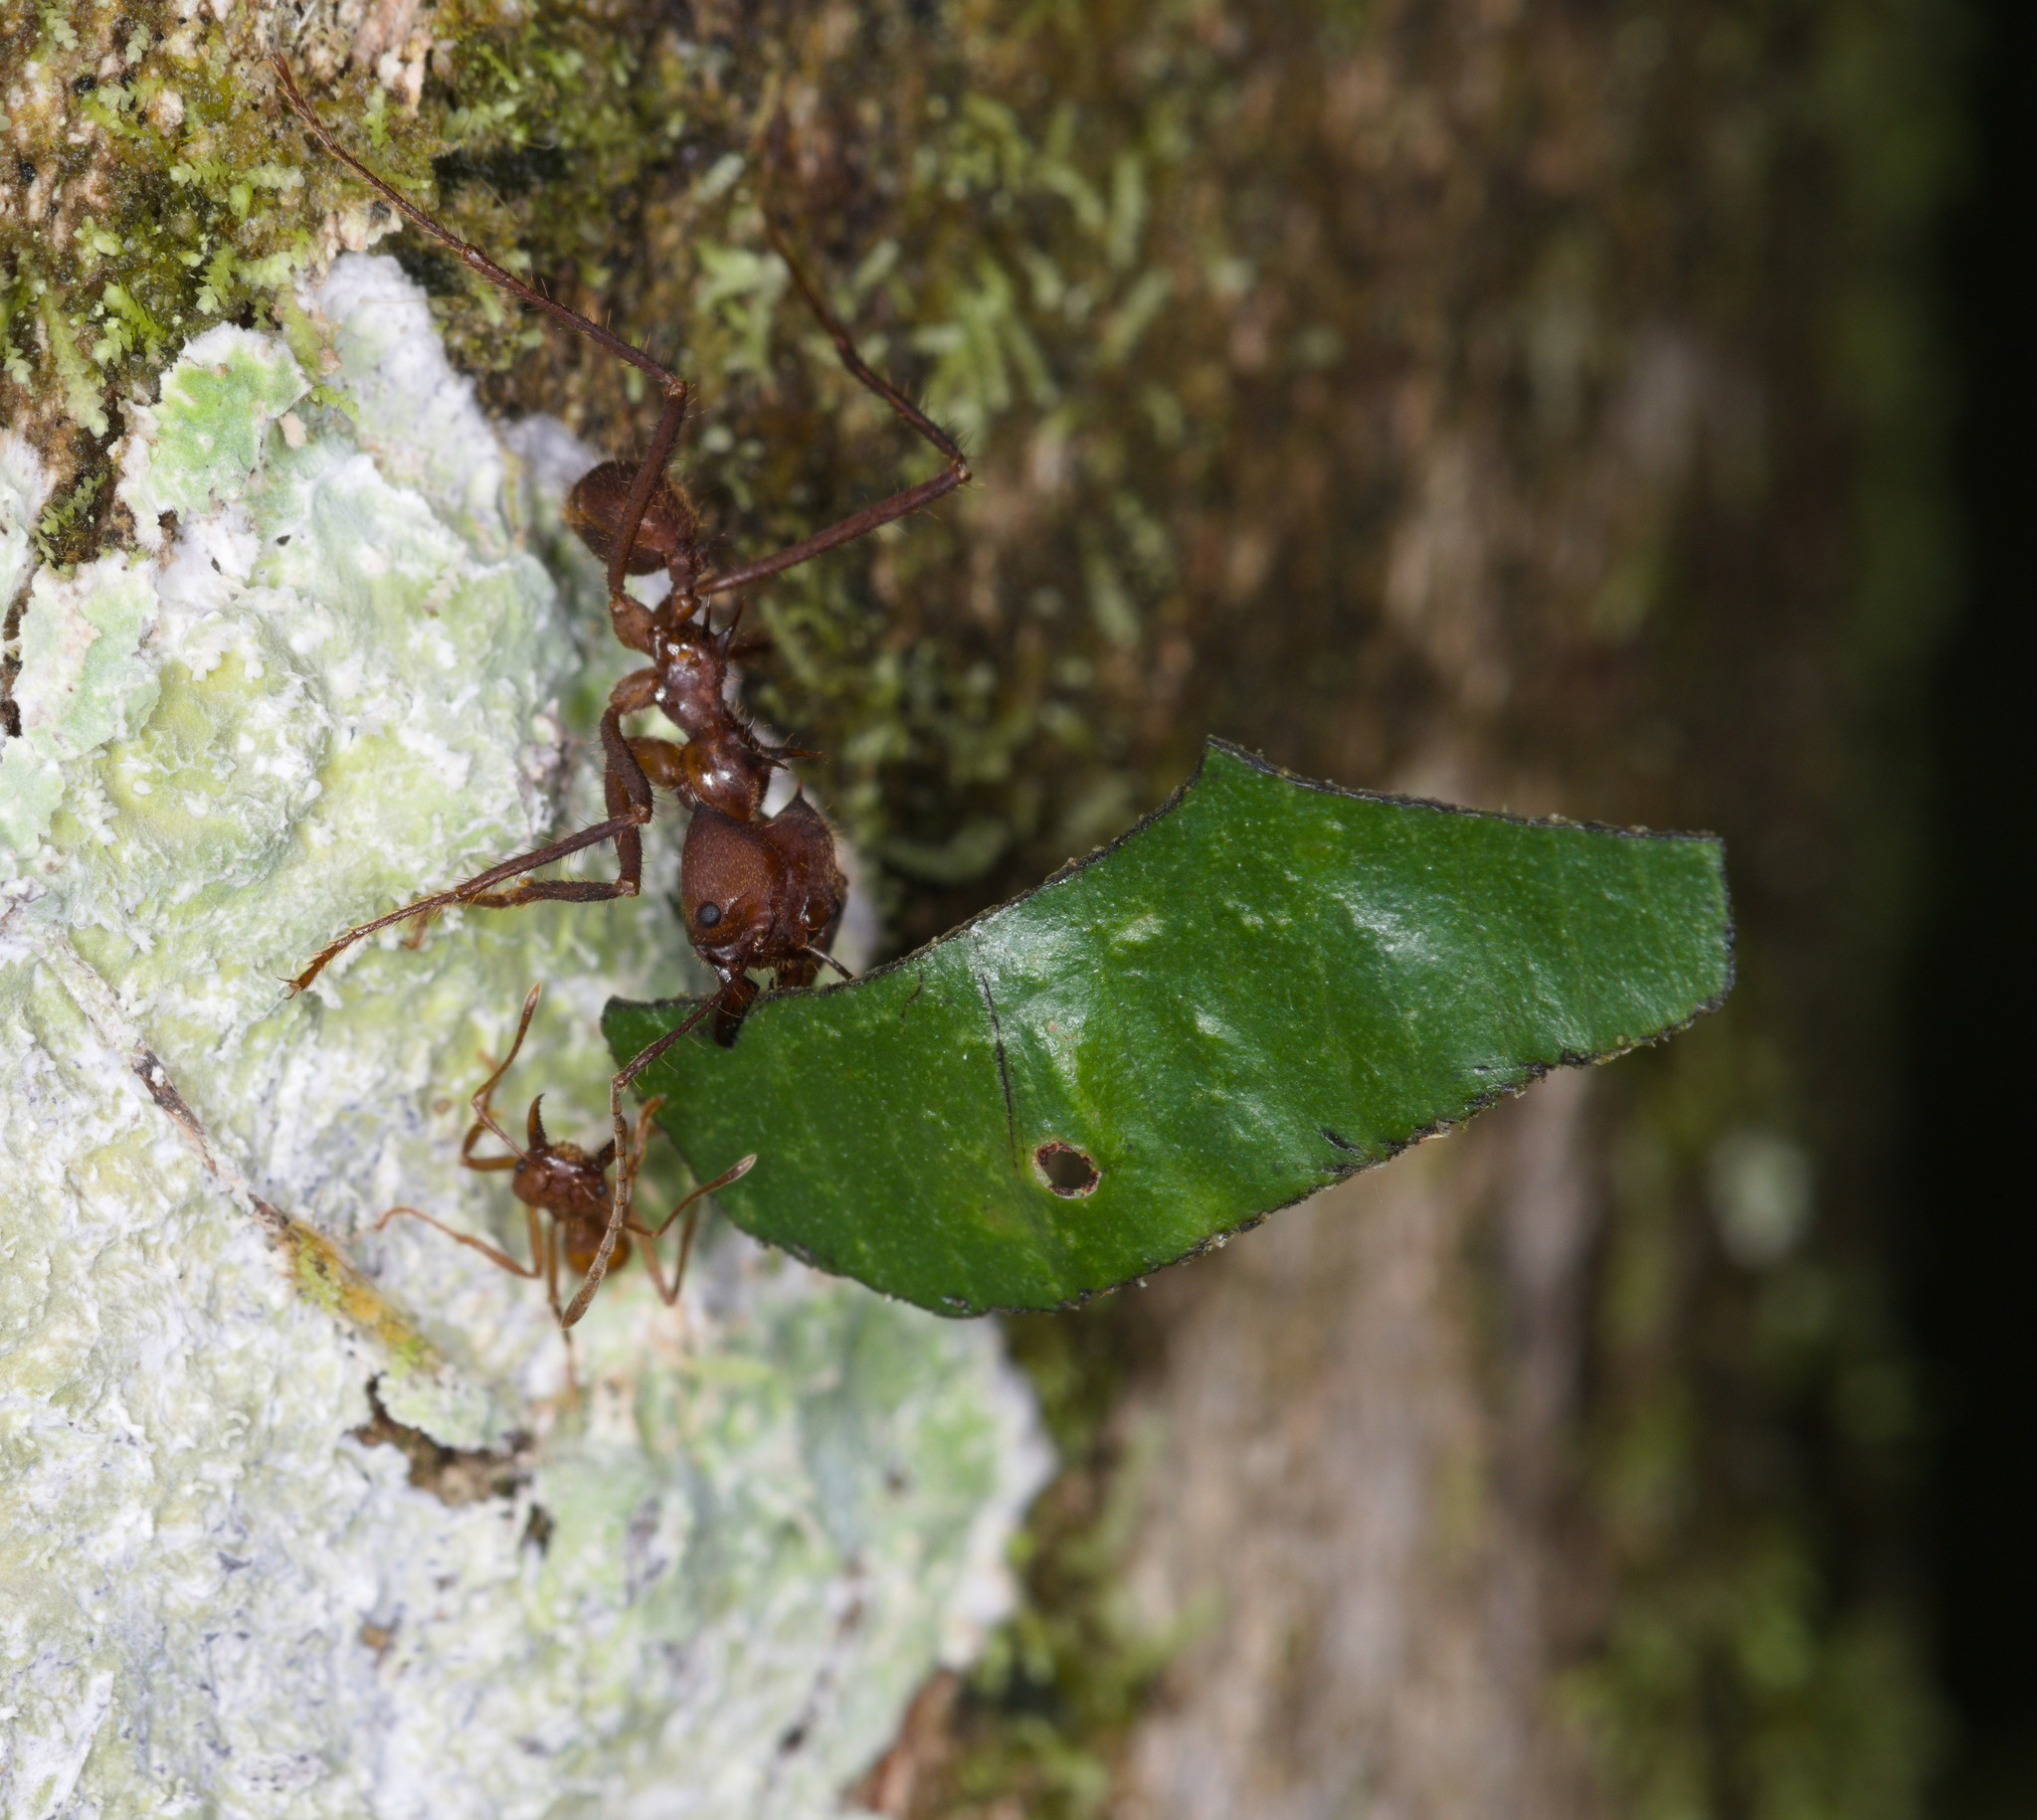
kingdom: Animalia
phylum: Arthropoda
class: Insecta
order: Hymenoptera
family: Formicidae
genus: Atta
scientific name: Atta cephalotes
